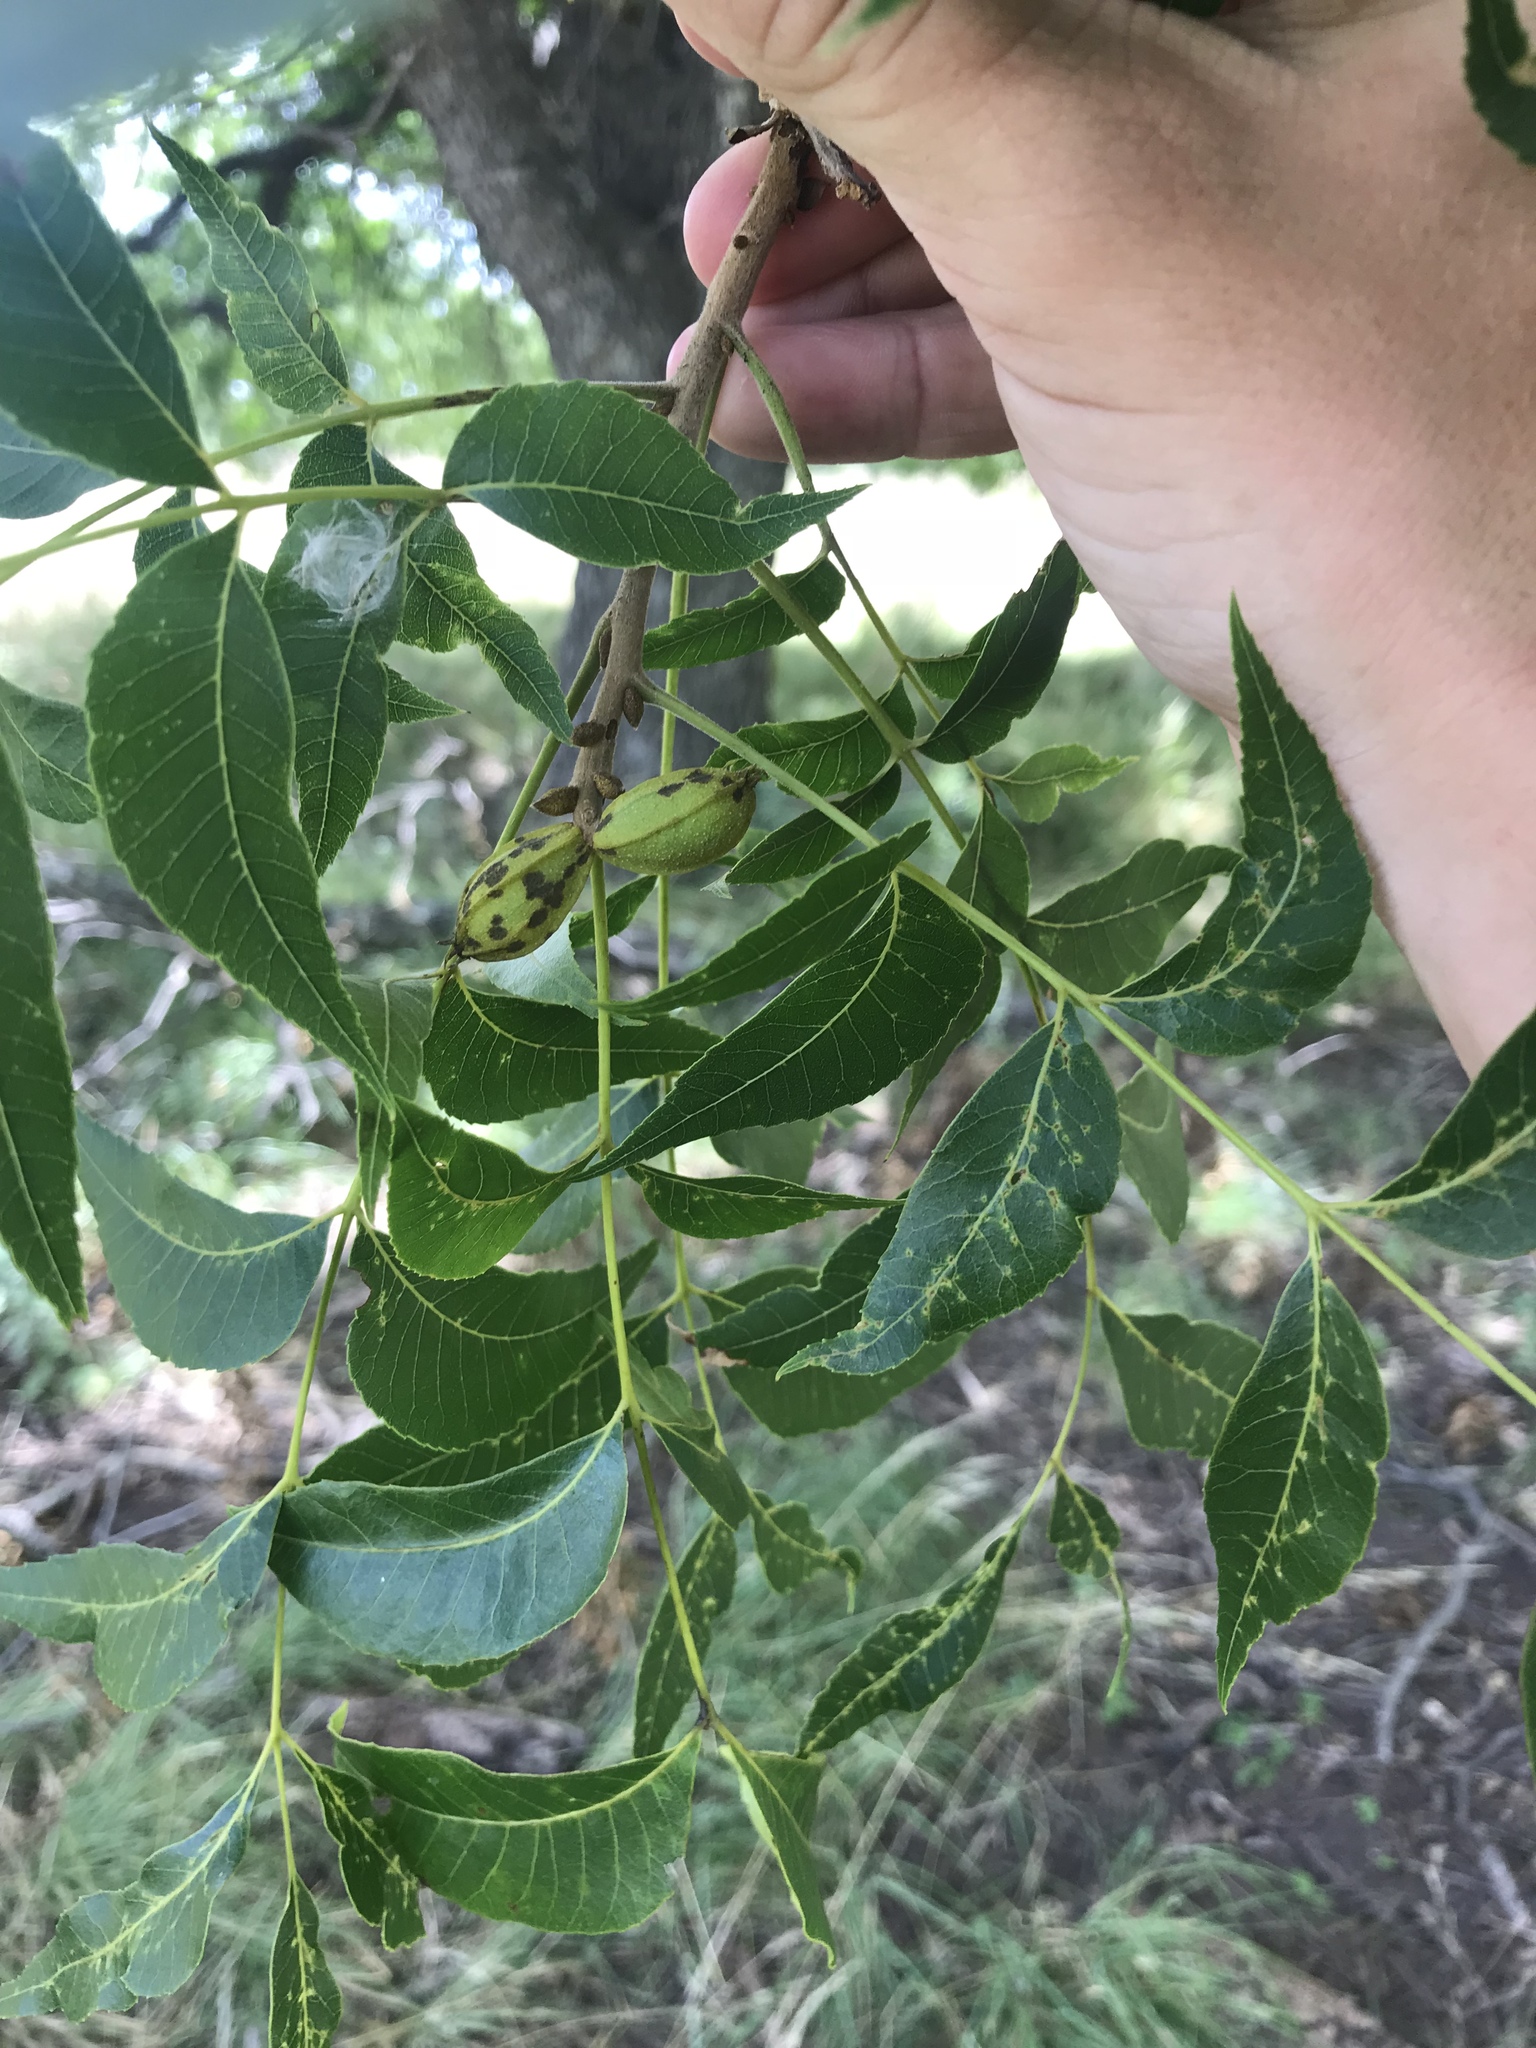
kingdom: Plantae
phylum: Tracheophyta
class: Magnoliopsida
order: Fagales
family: Juglandaceae
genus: Carya
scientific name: Carya illinoinensis
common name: Pecan
